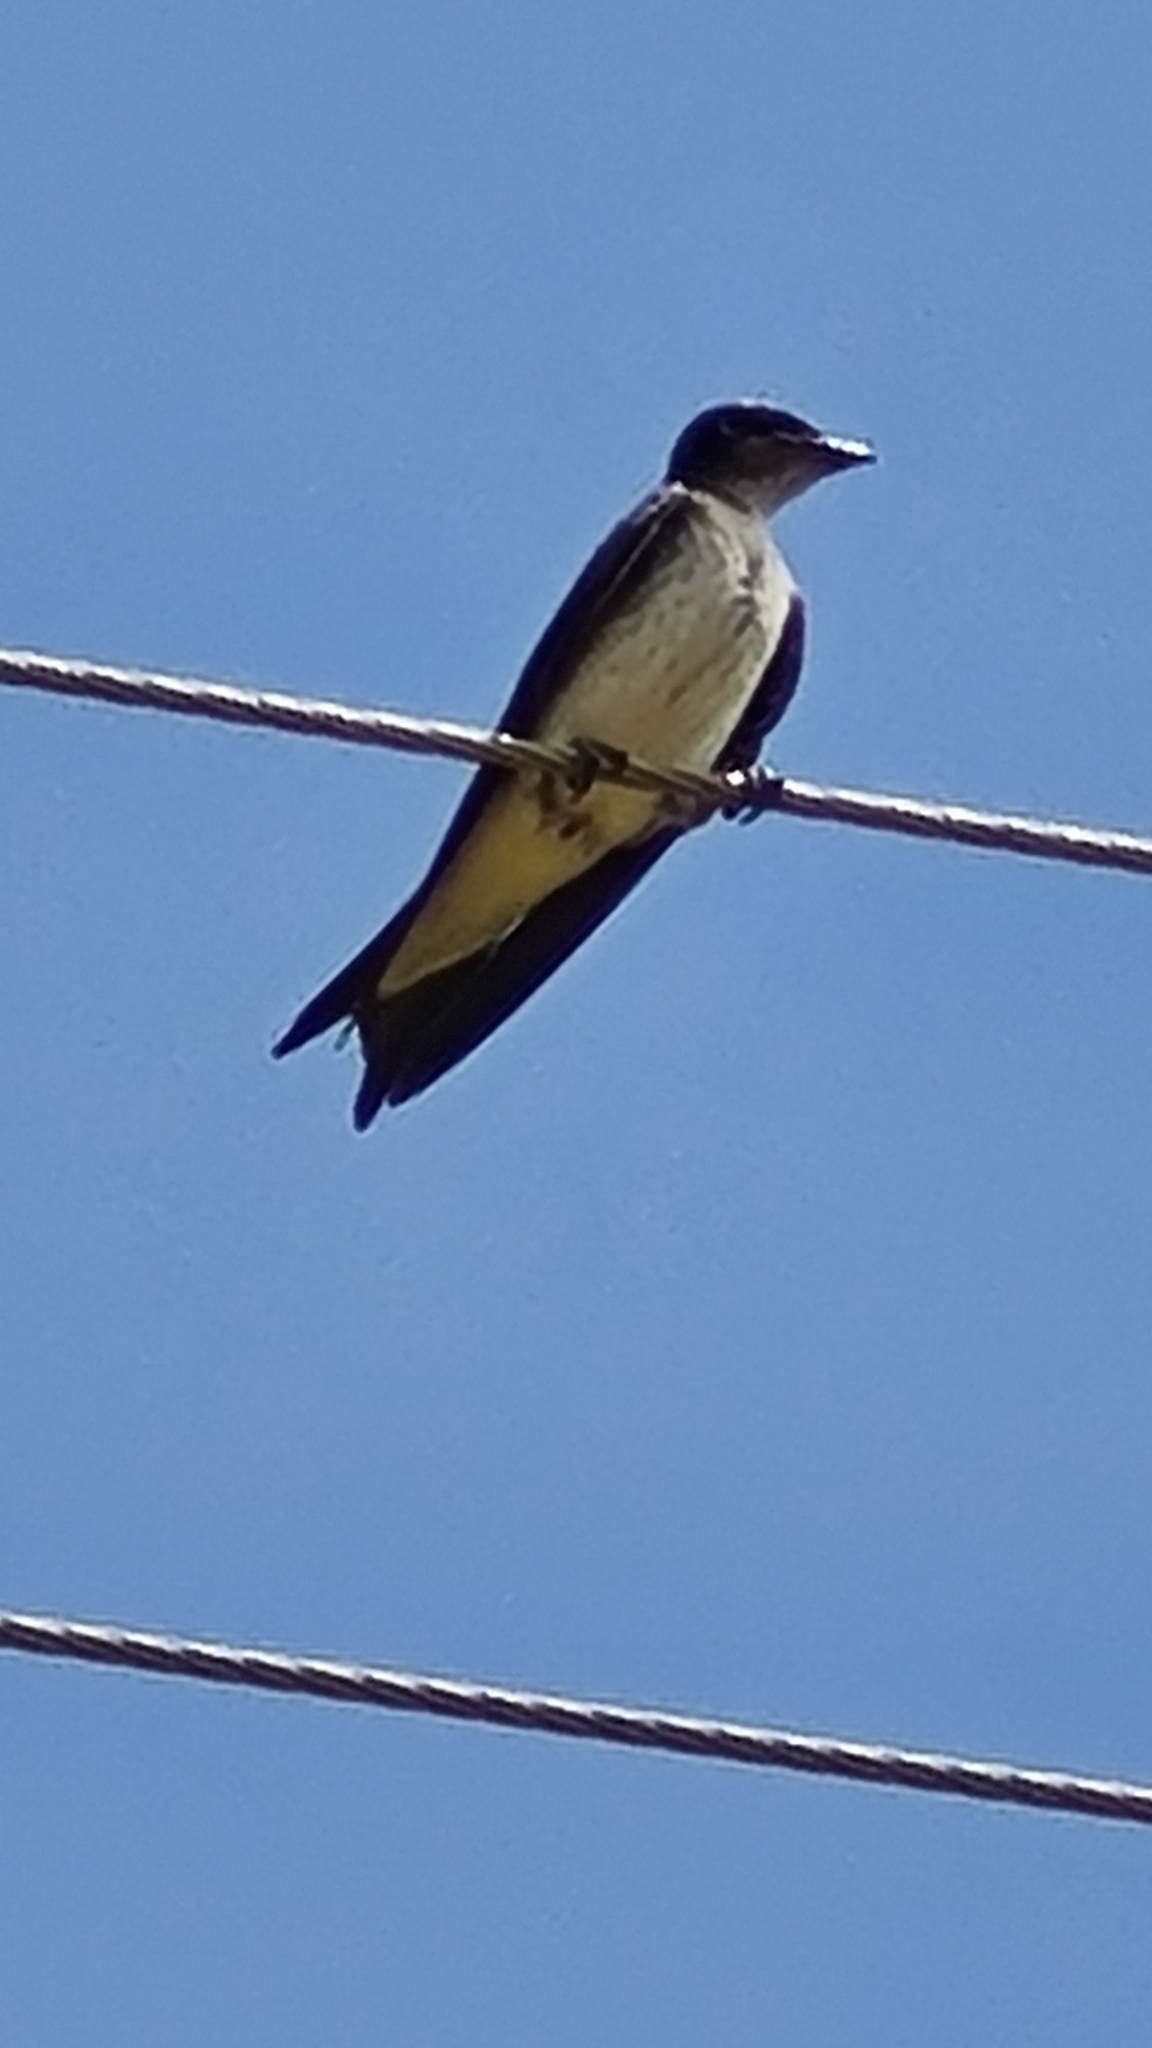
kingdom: Animalia
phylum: Chordata
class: Aves
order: Passeriformes
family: Hirundinidae
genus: Progne
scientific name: Progne chalybea
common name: Grey-breasted martin
